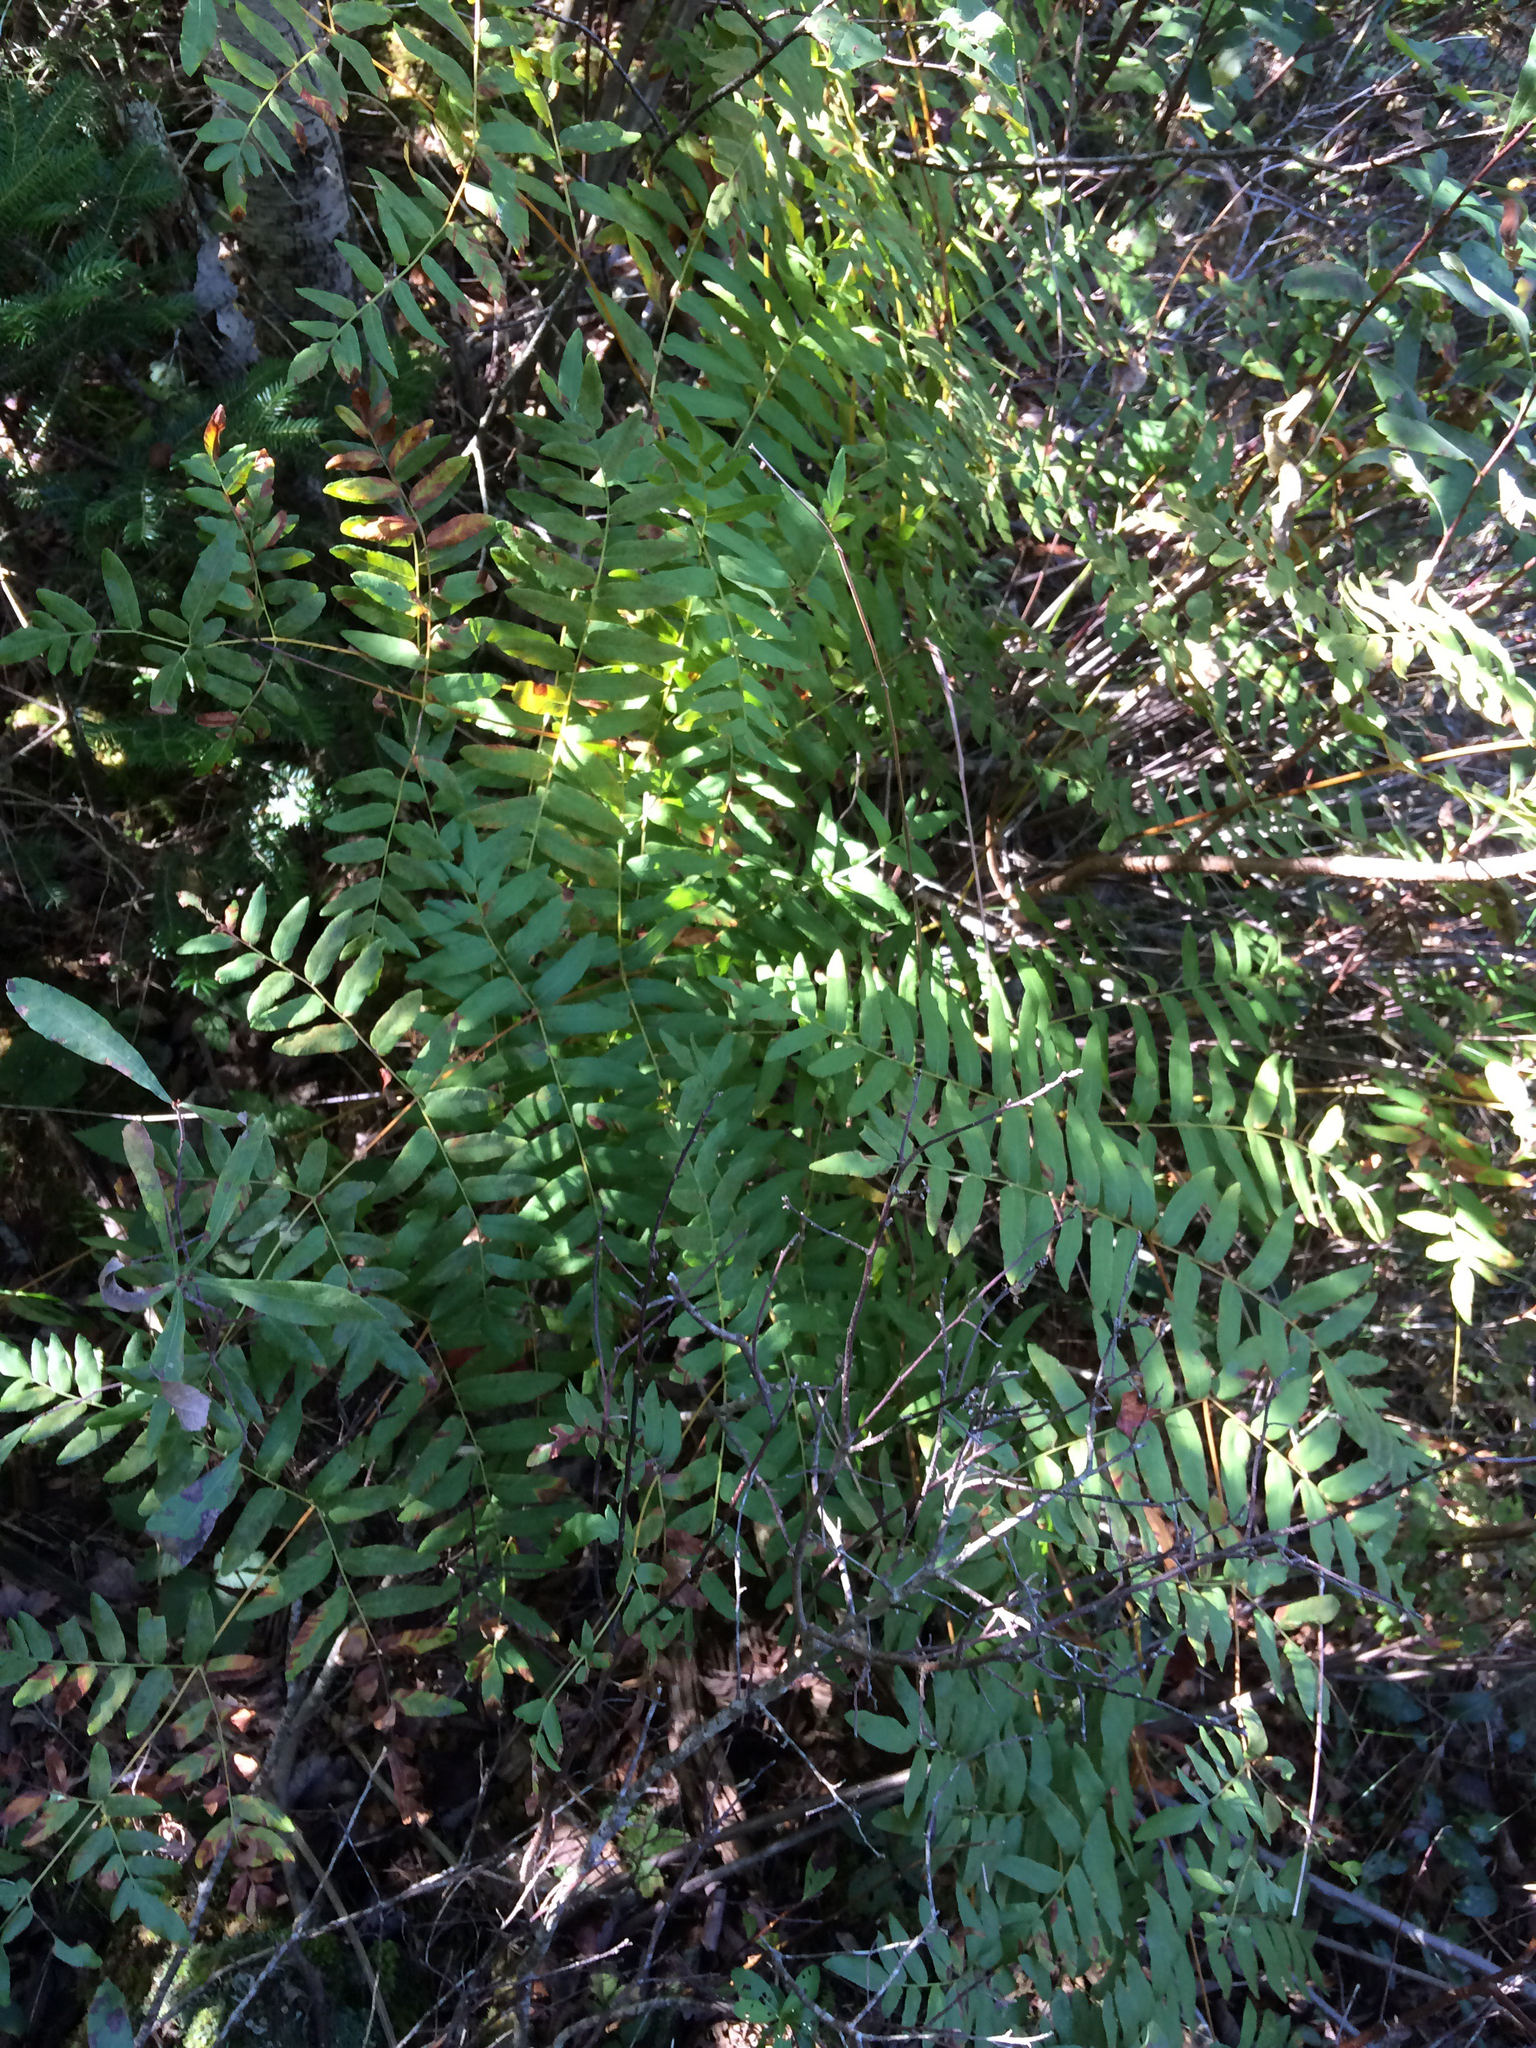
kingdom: Plantae
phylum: Tracheophyta
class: Polypodiopsida
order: Osmundales
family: Osmundaceae
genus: Osmunda
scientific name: Osmunda spectabilis
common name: American royal fern
